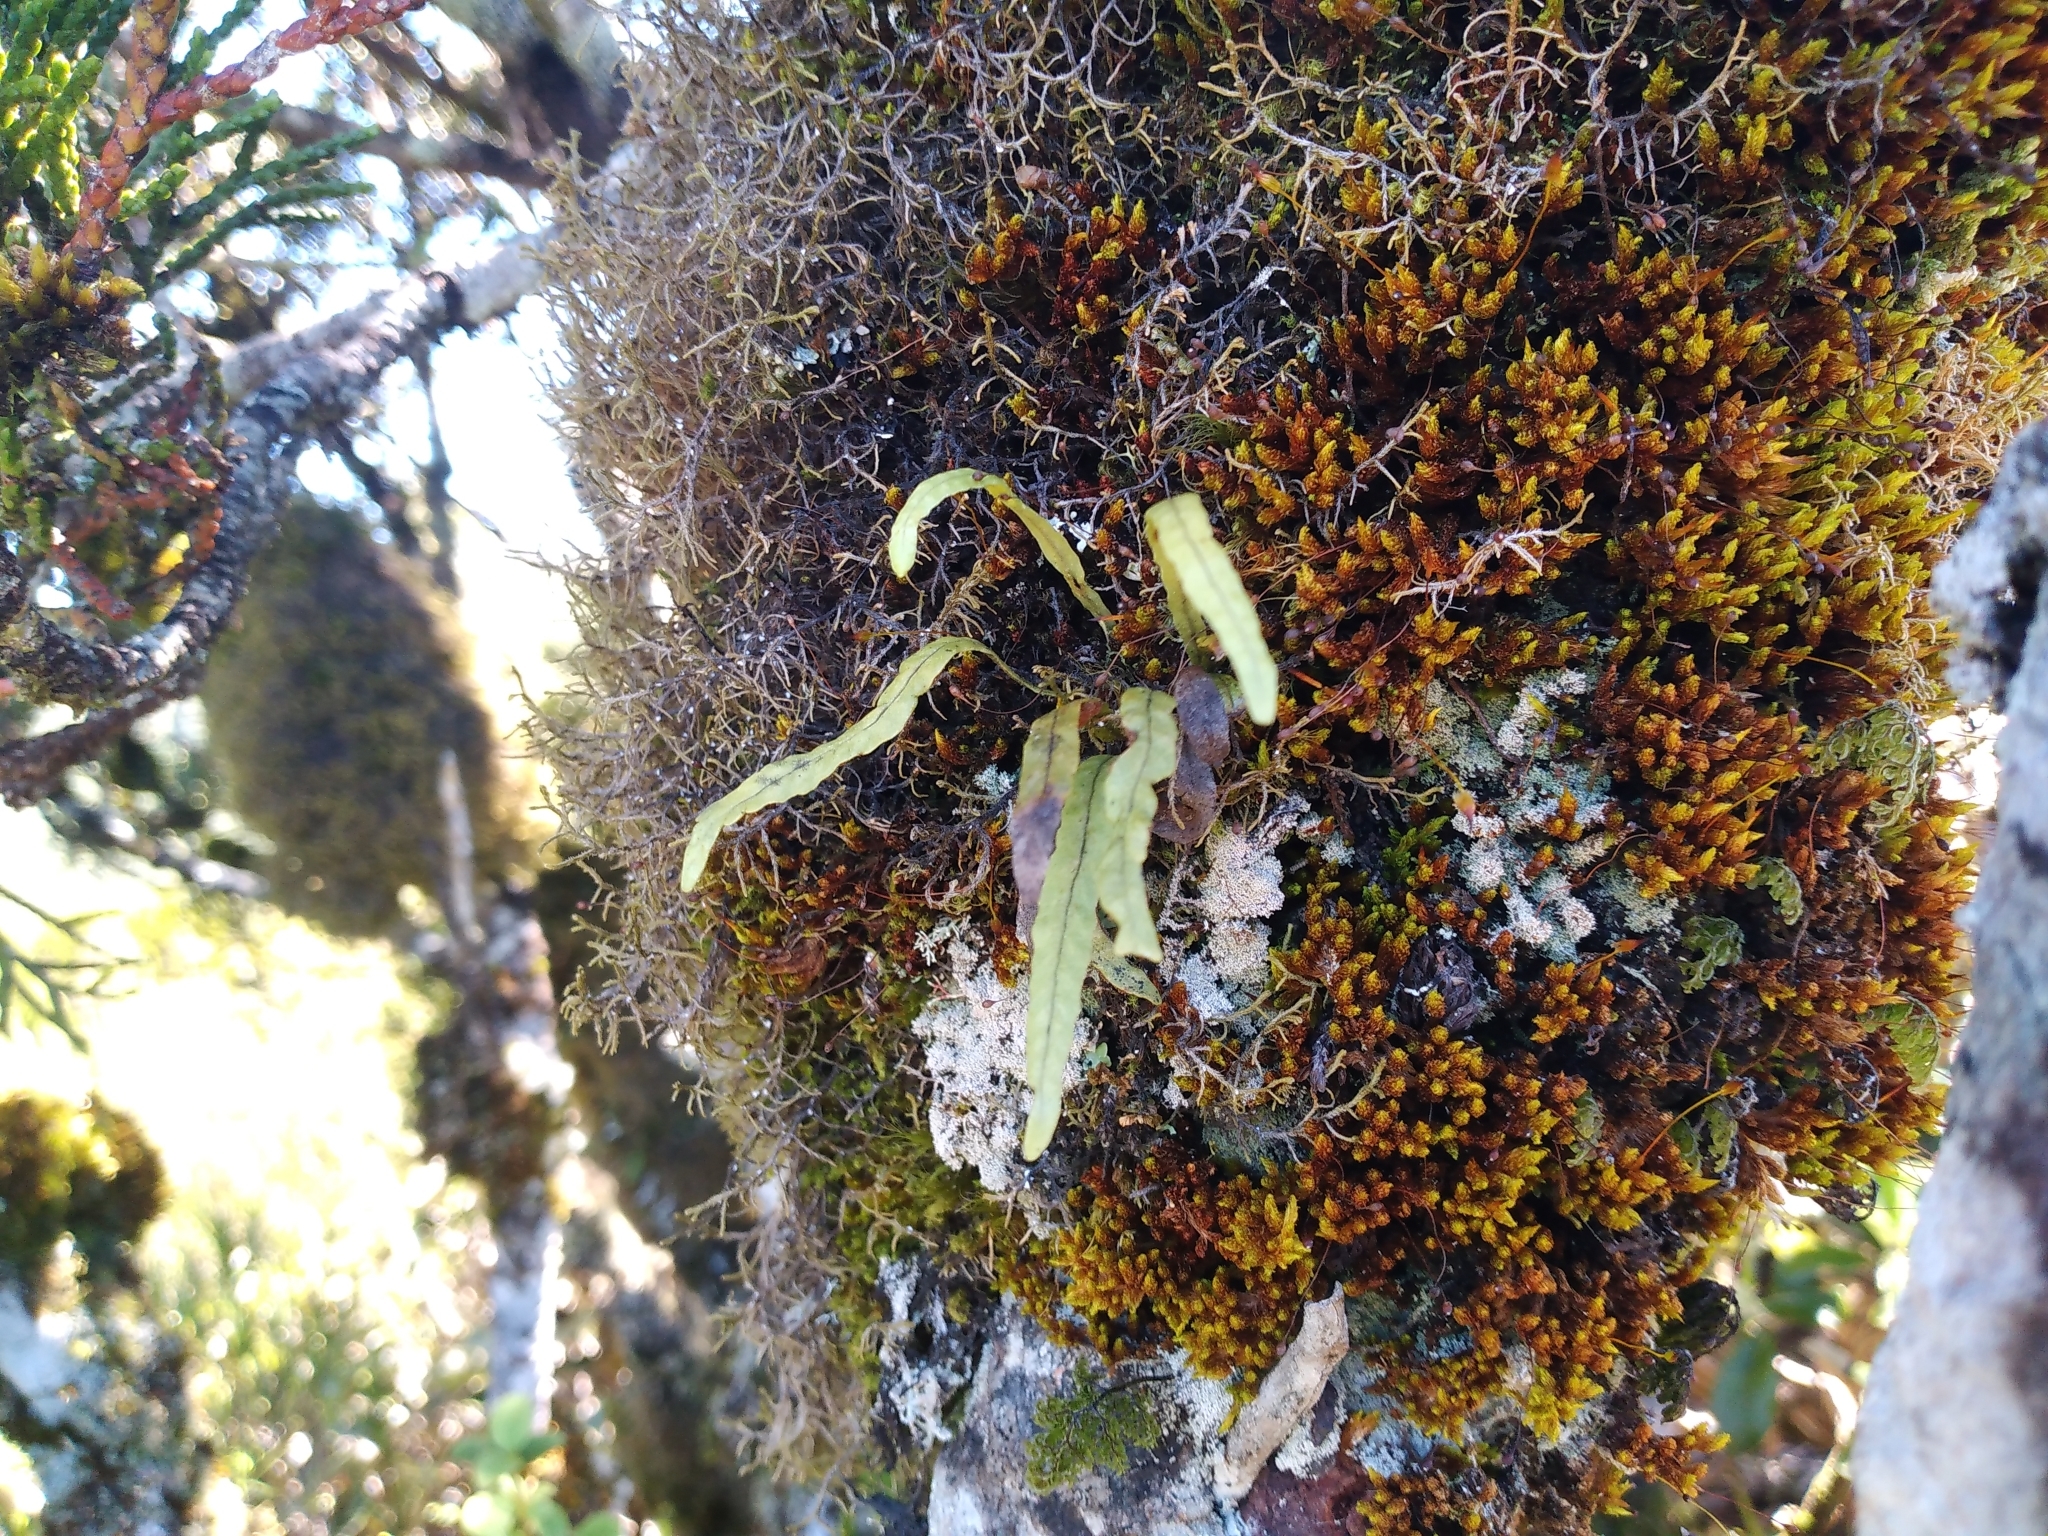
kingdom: Plantae
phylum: Tracheophyta
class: Polypodiopsida
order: Polypodiales
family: Polypodiaceae
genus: Notogrammitis
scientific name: Notogrammitis angustifolia
